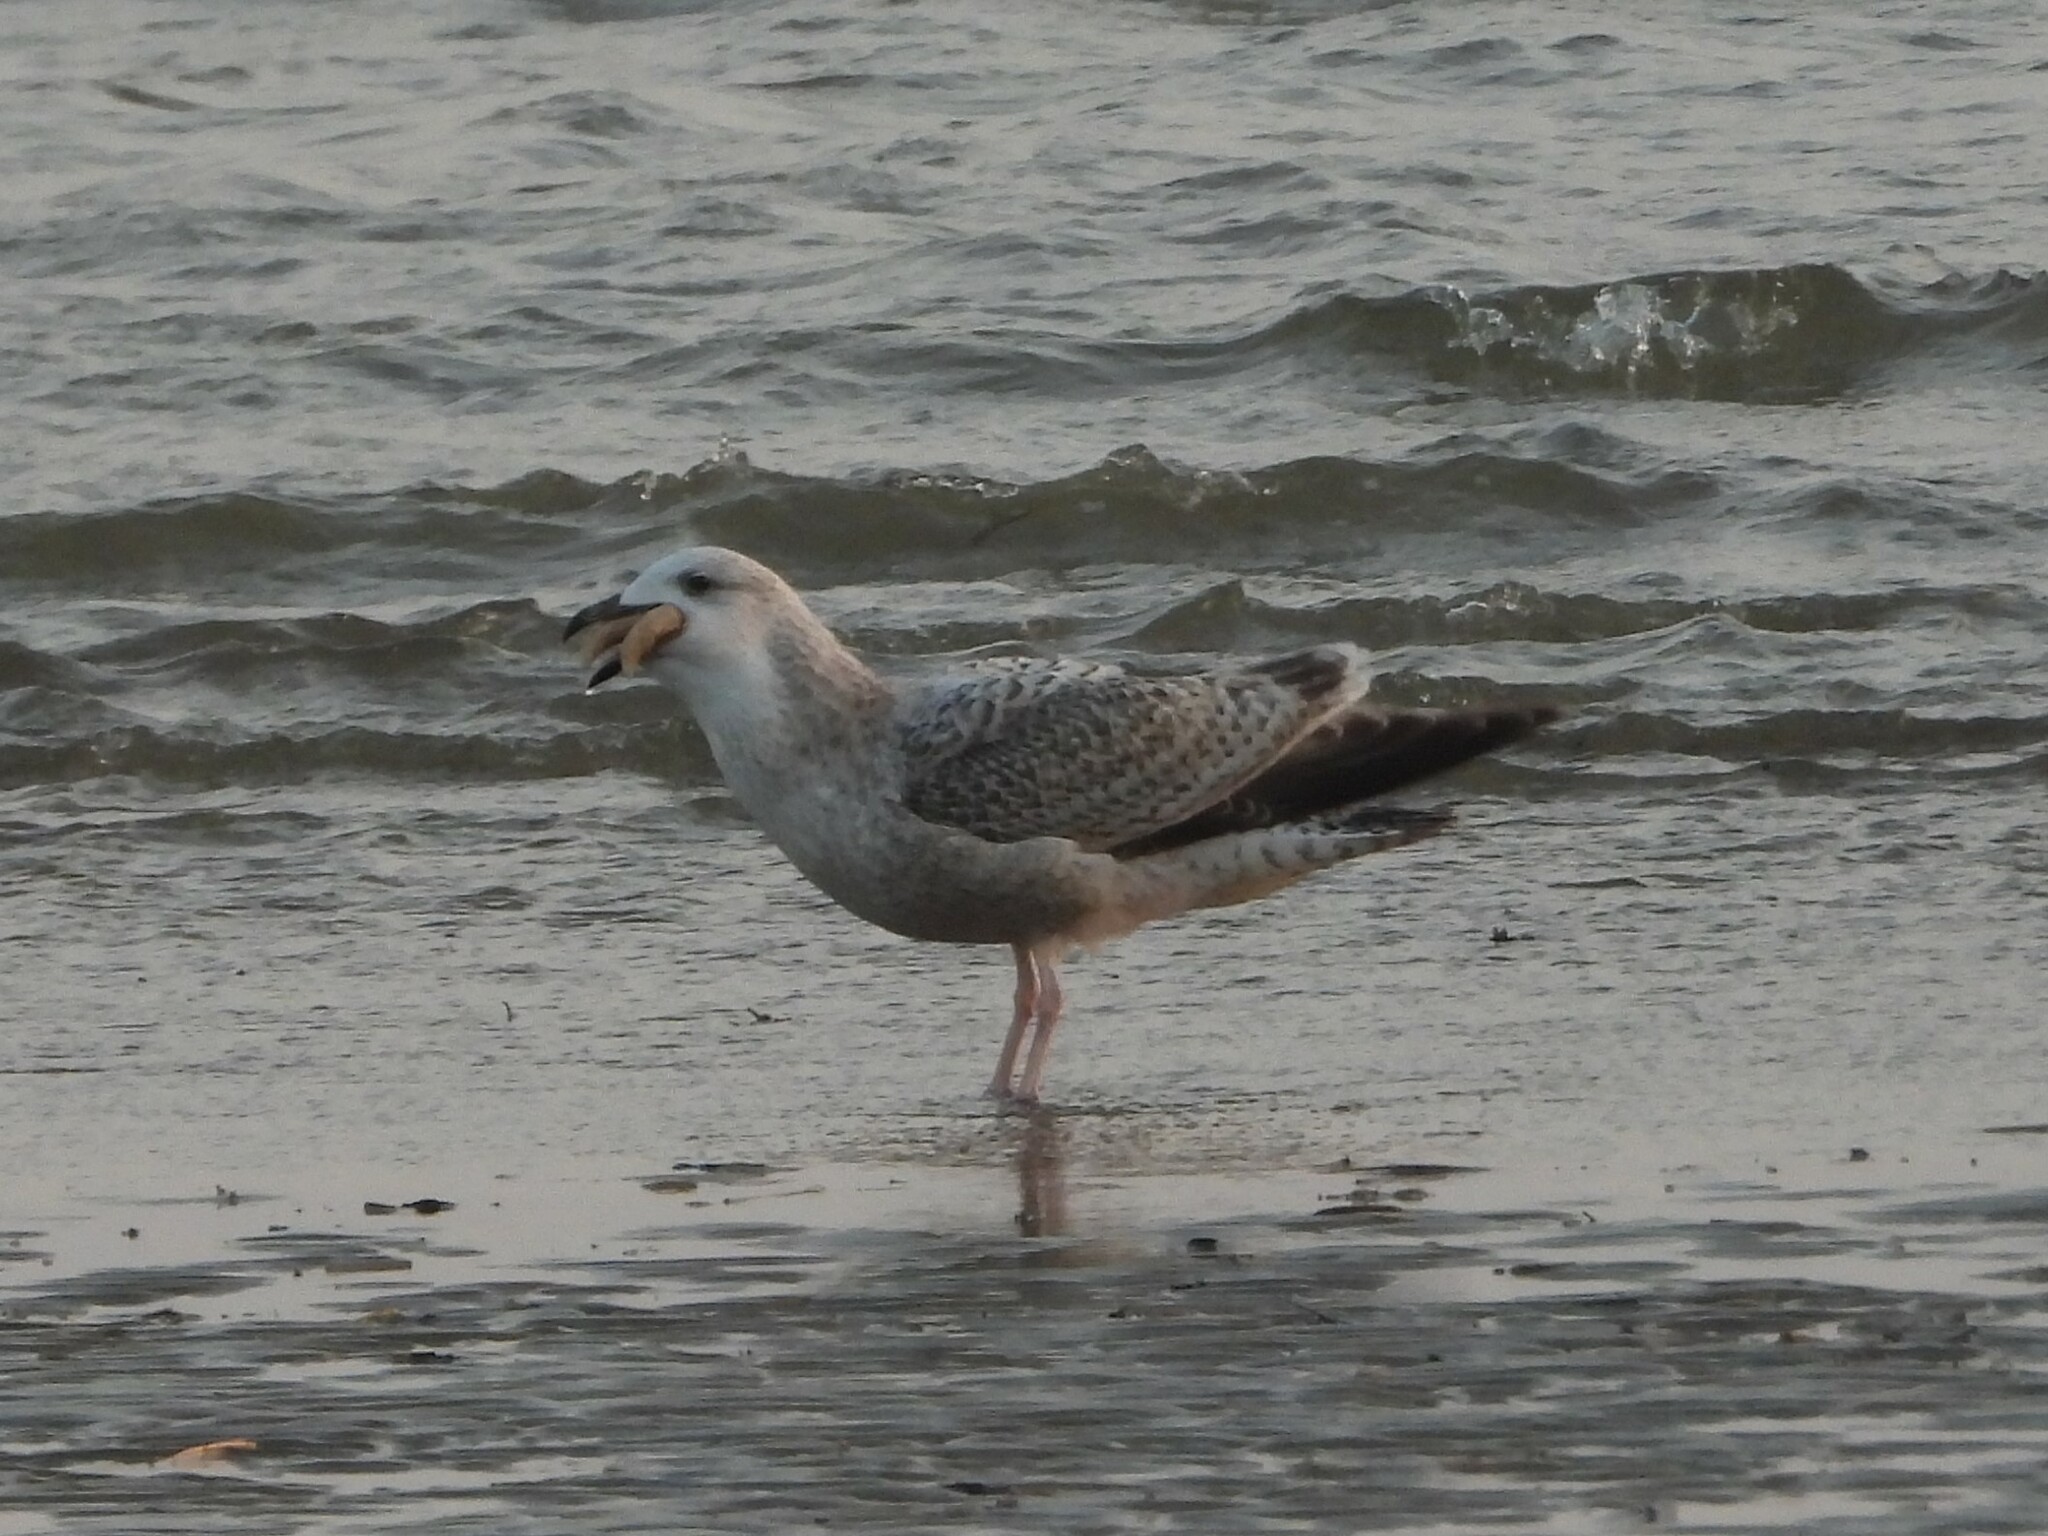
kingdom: Animalia
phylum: Chordata
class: Aves
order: Charadriiformes
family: Laridae
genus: Larus
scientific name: Larus argentatus
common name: Herring gull
